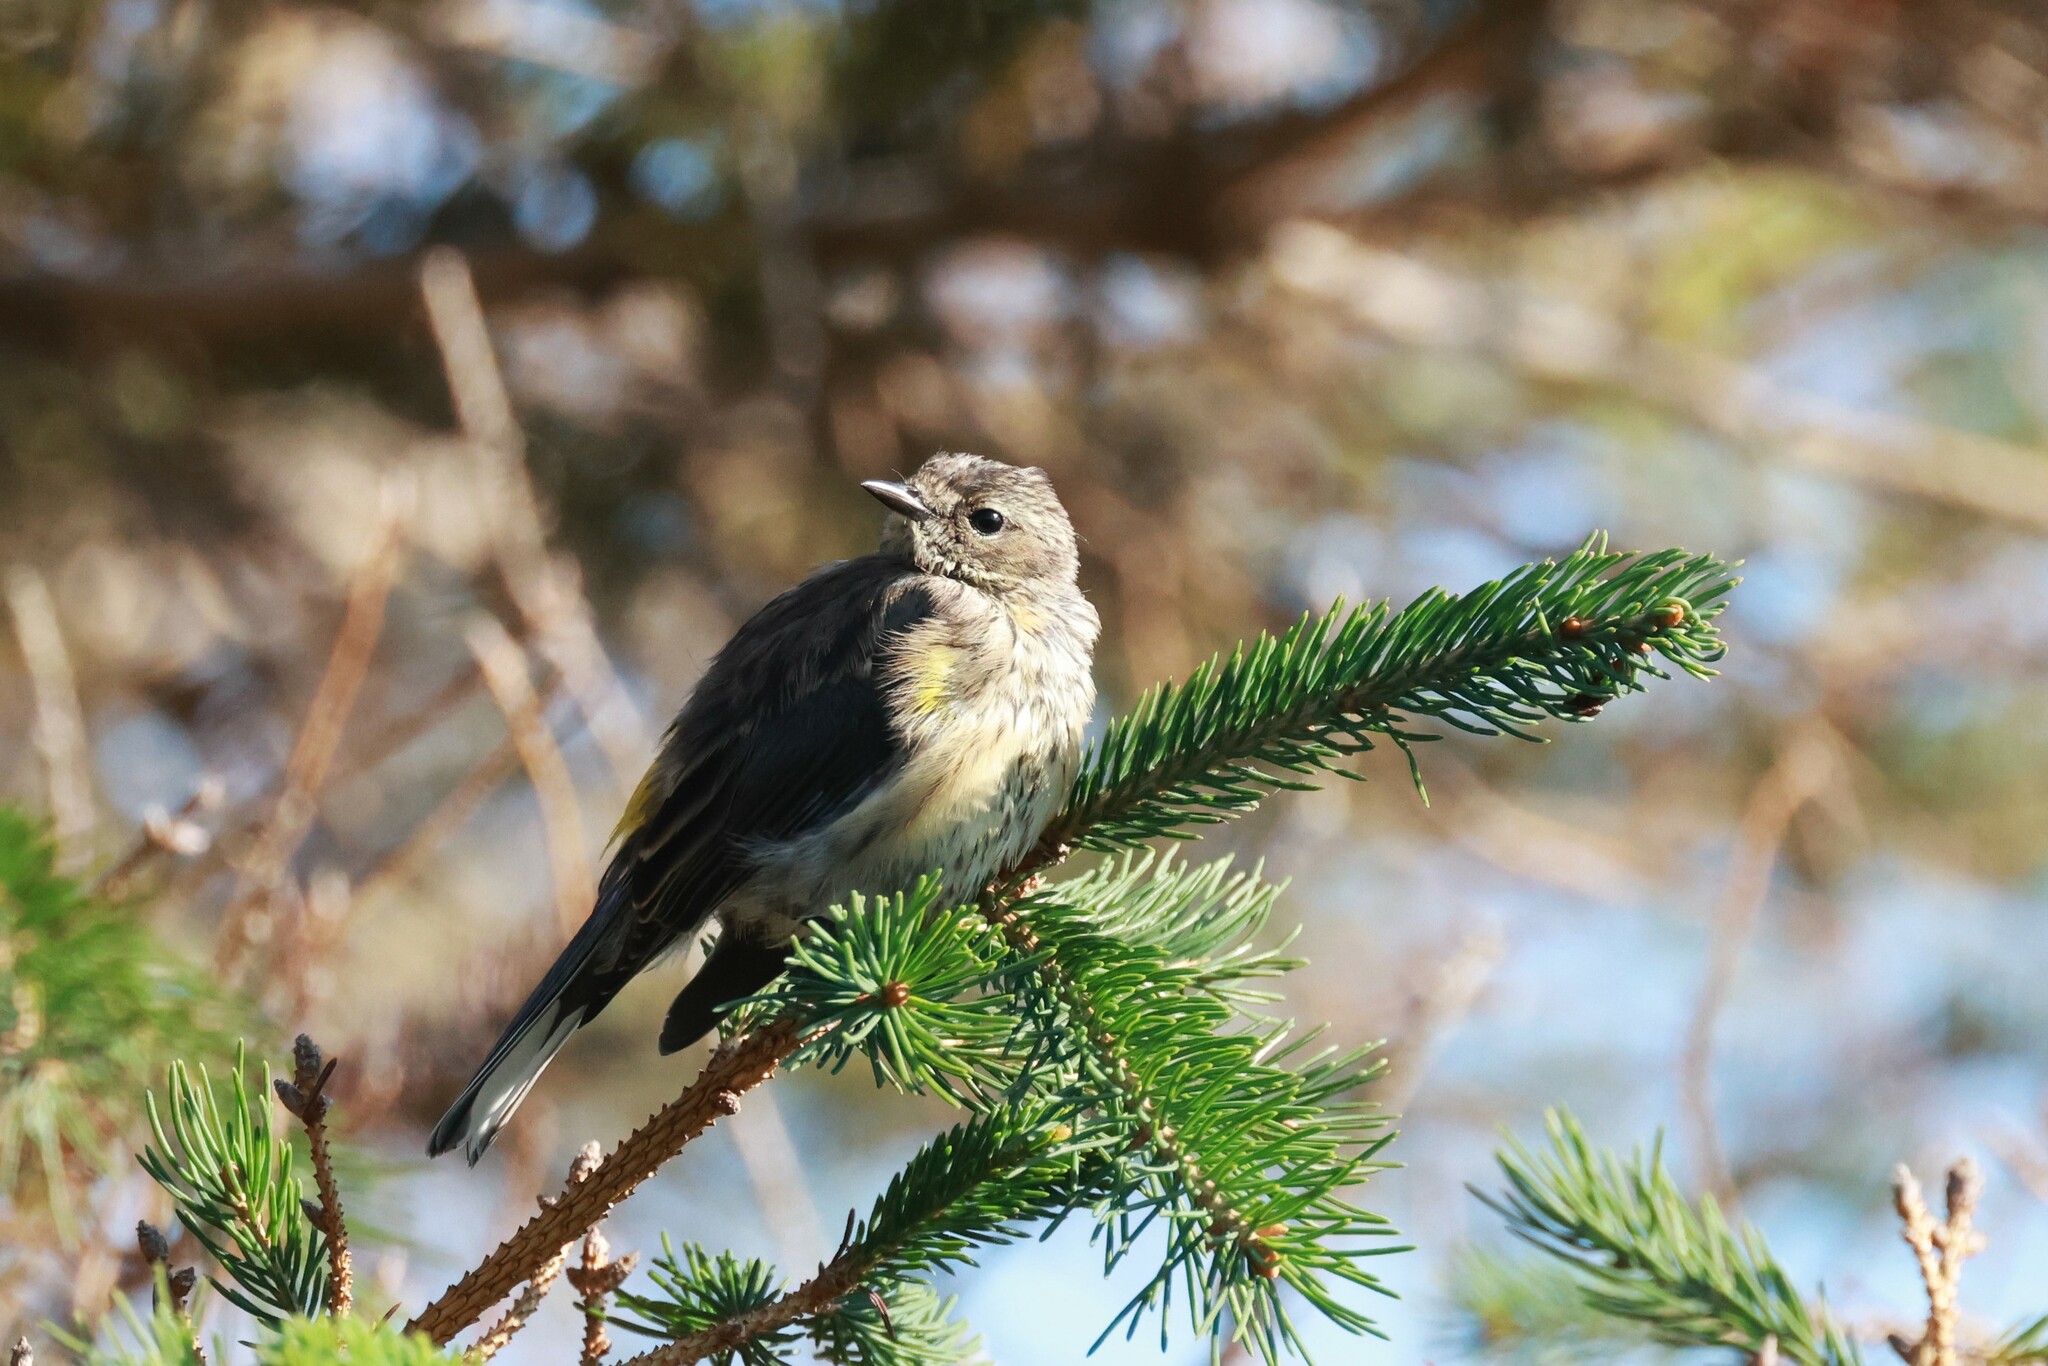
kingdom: Animalia
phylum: Chordata
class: Aves
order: Passeriformes
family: Parulidae
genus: Setophaga
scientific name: Setophaga coronata
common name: Myrtle warbler
